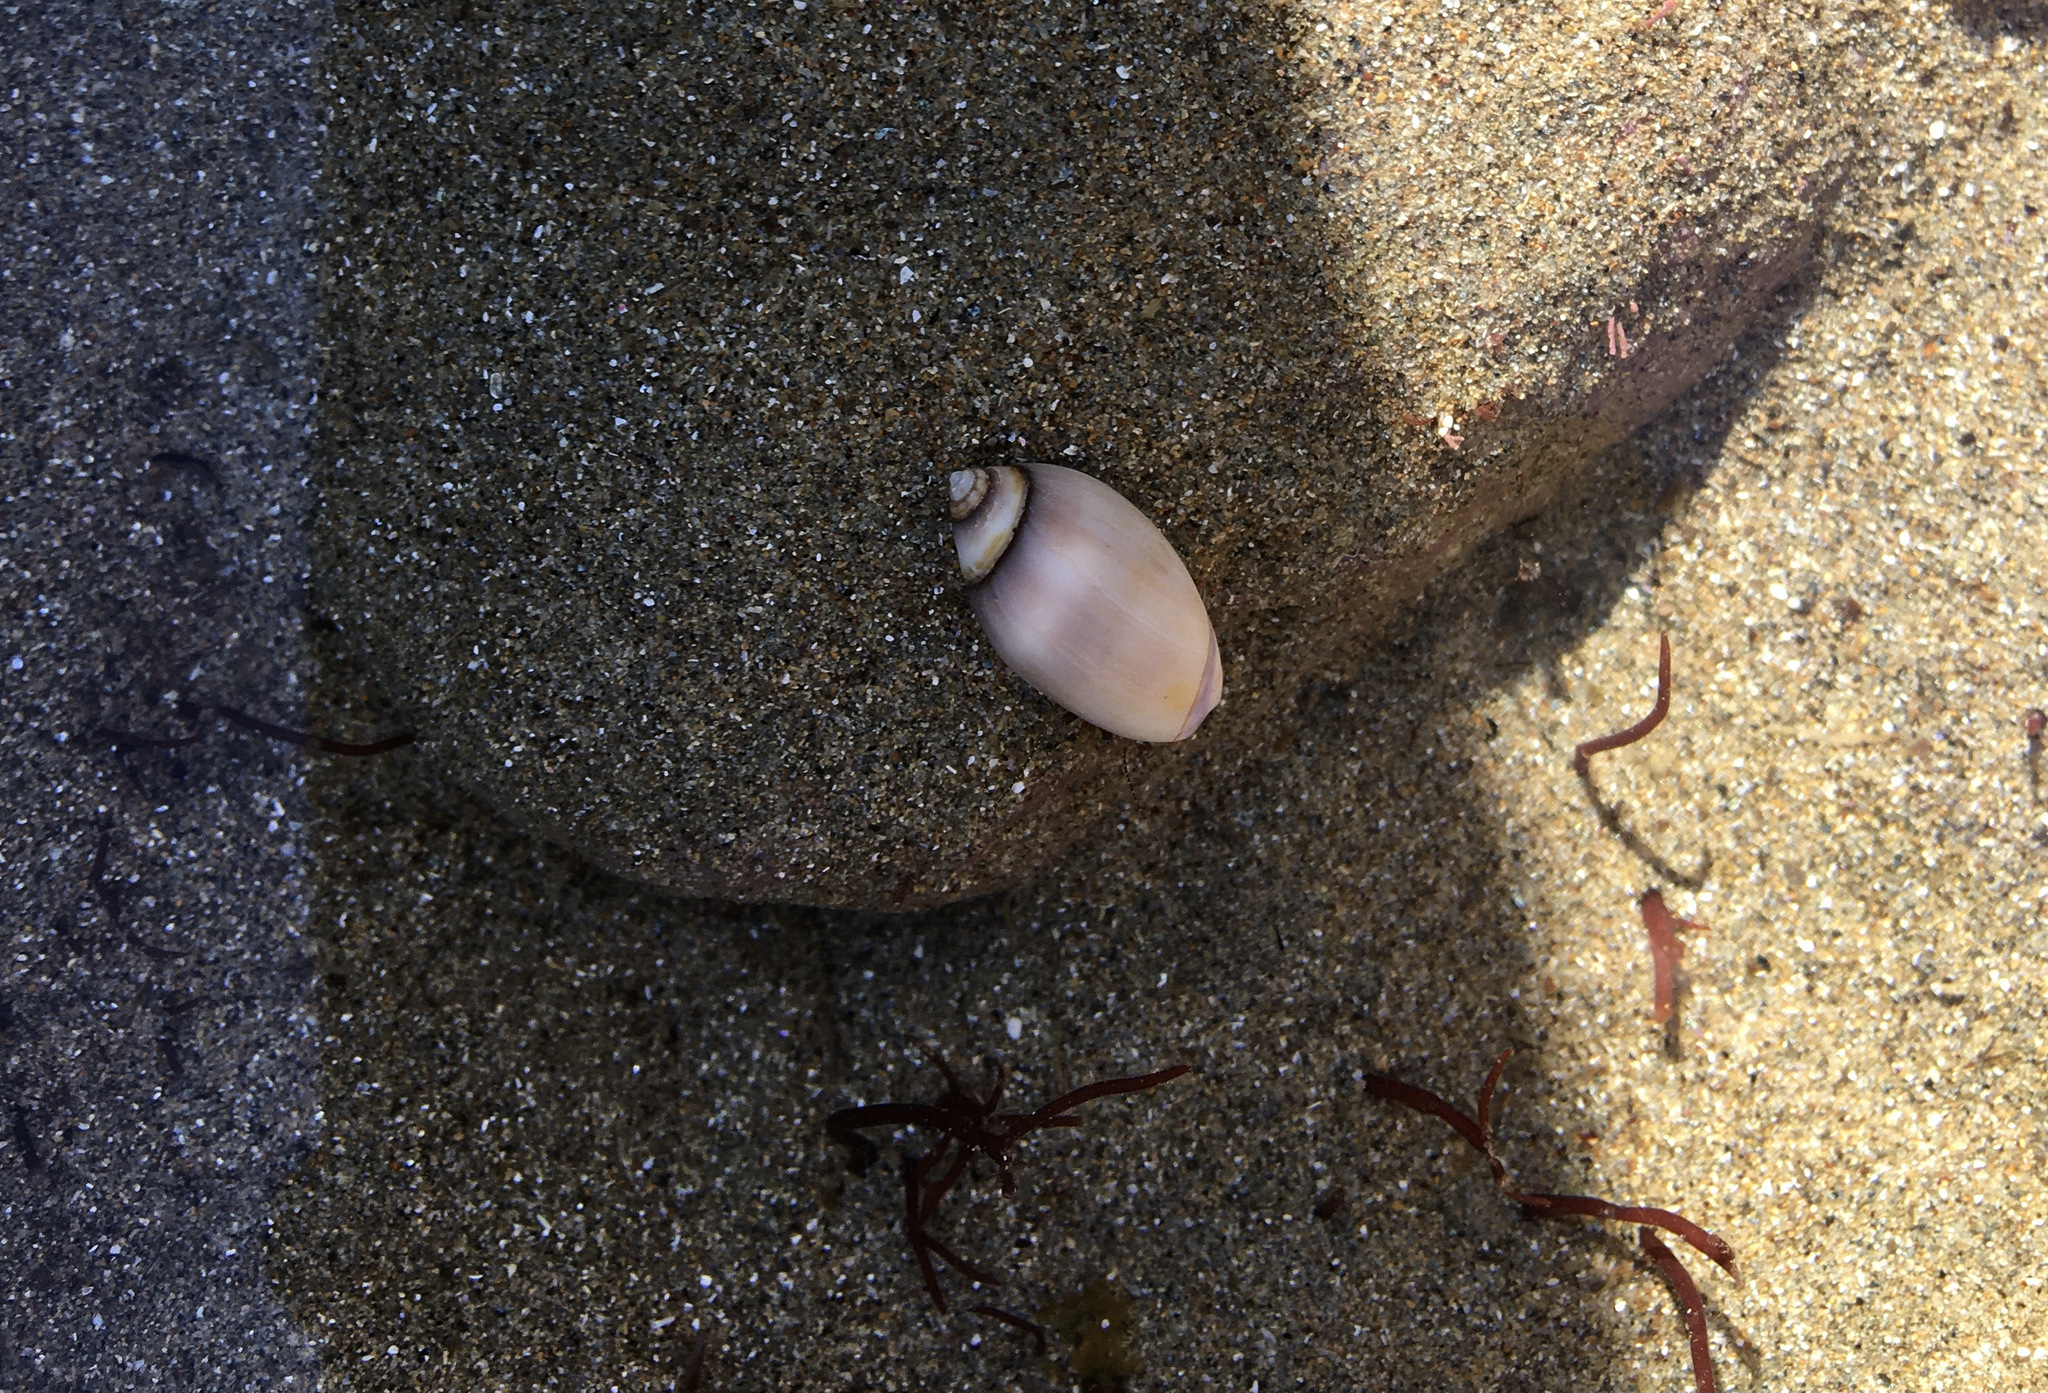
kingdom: Animalia
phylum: Mollusca
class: Gastropoda
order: Neogastropoda
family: Olividae
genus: Callianax
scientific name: Callianax biplicata
